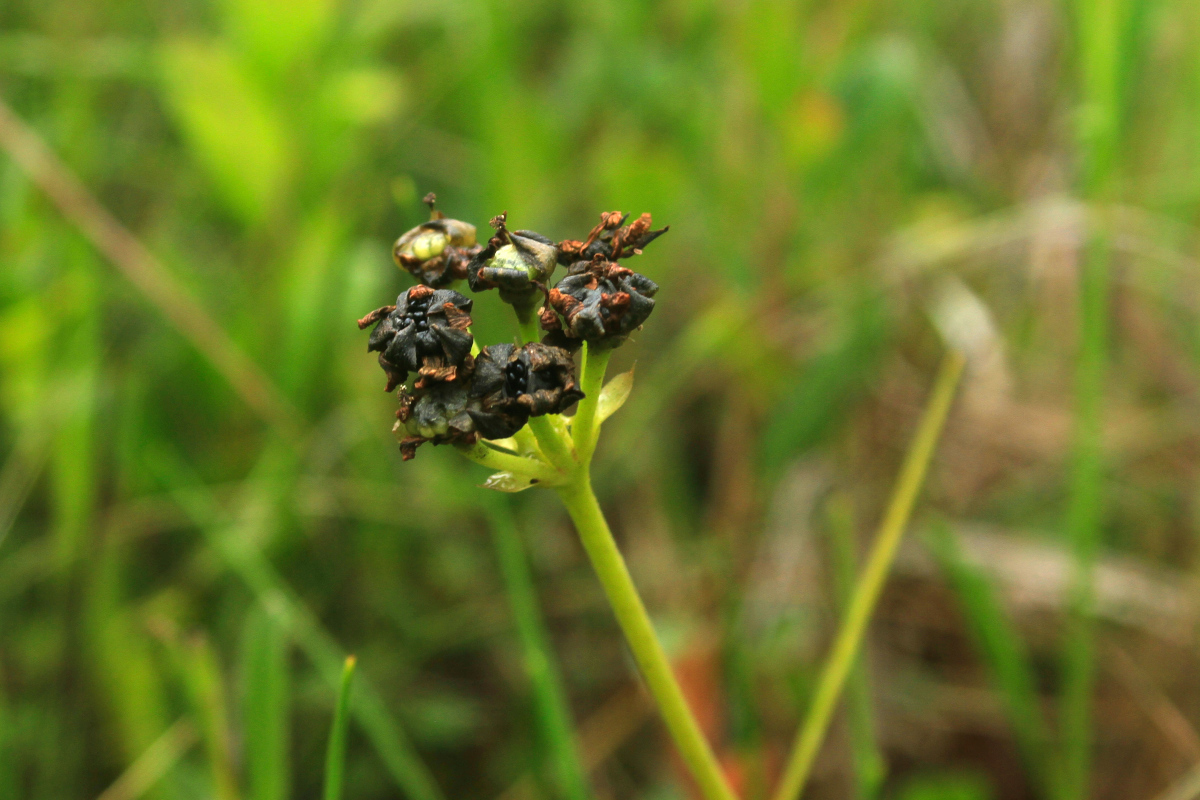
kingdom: Plantae
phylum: Tracheophyta
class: Magnoliopsida
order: Caryophyllales
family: Droseraceae
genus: Dionaea
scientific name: Dionaea muscipula
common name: Venus flytrap
